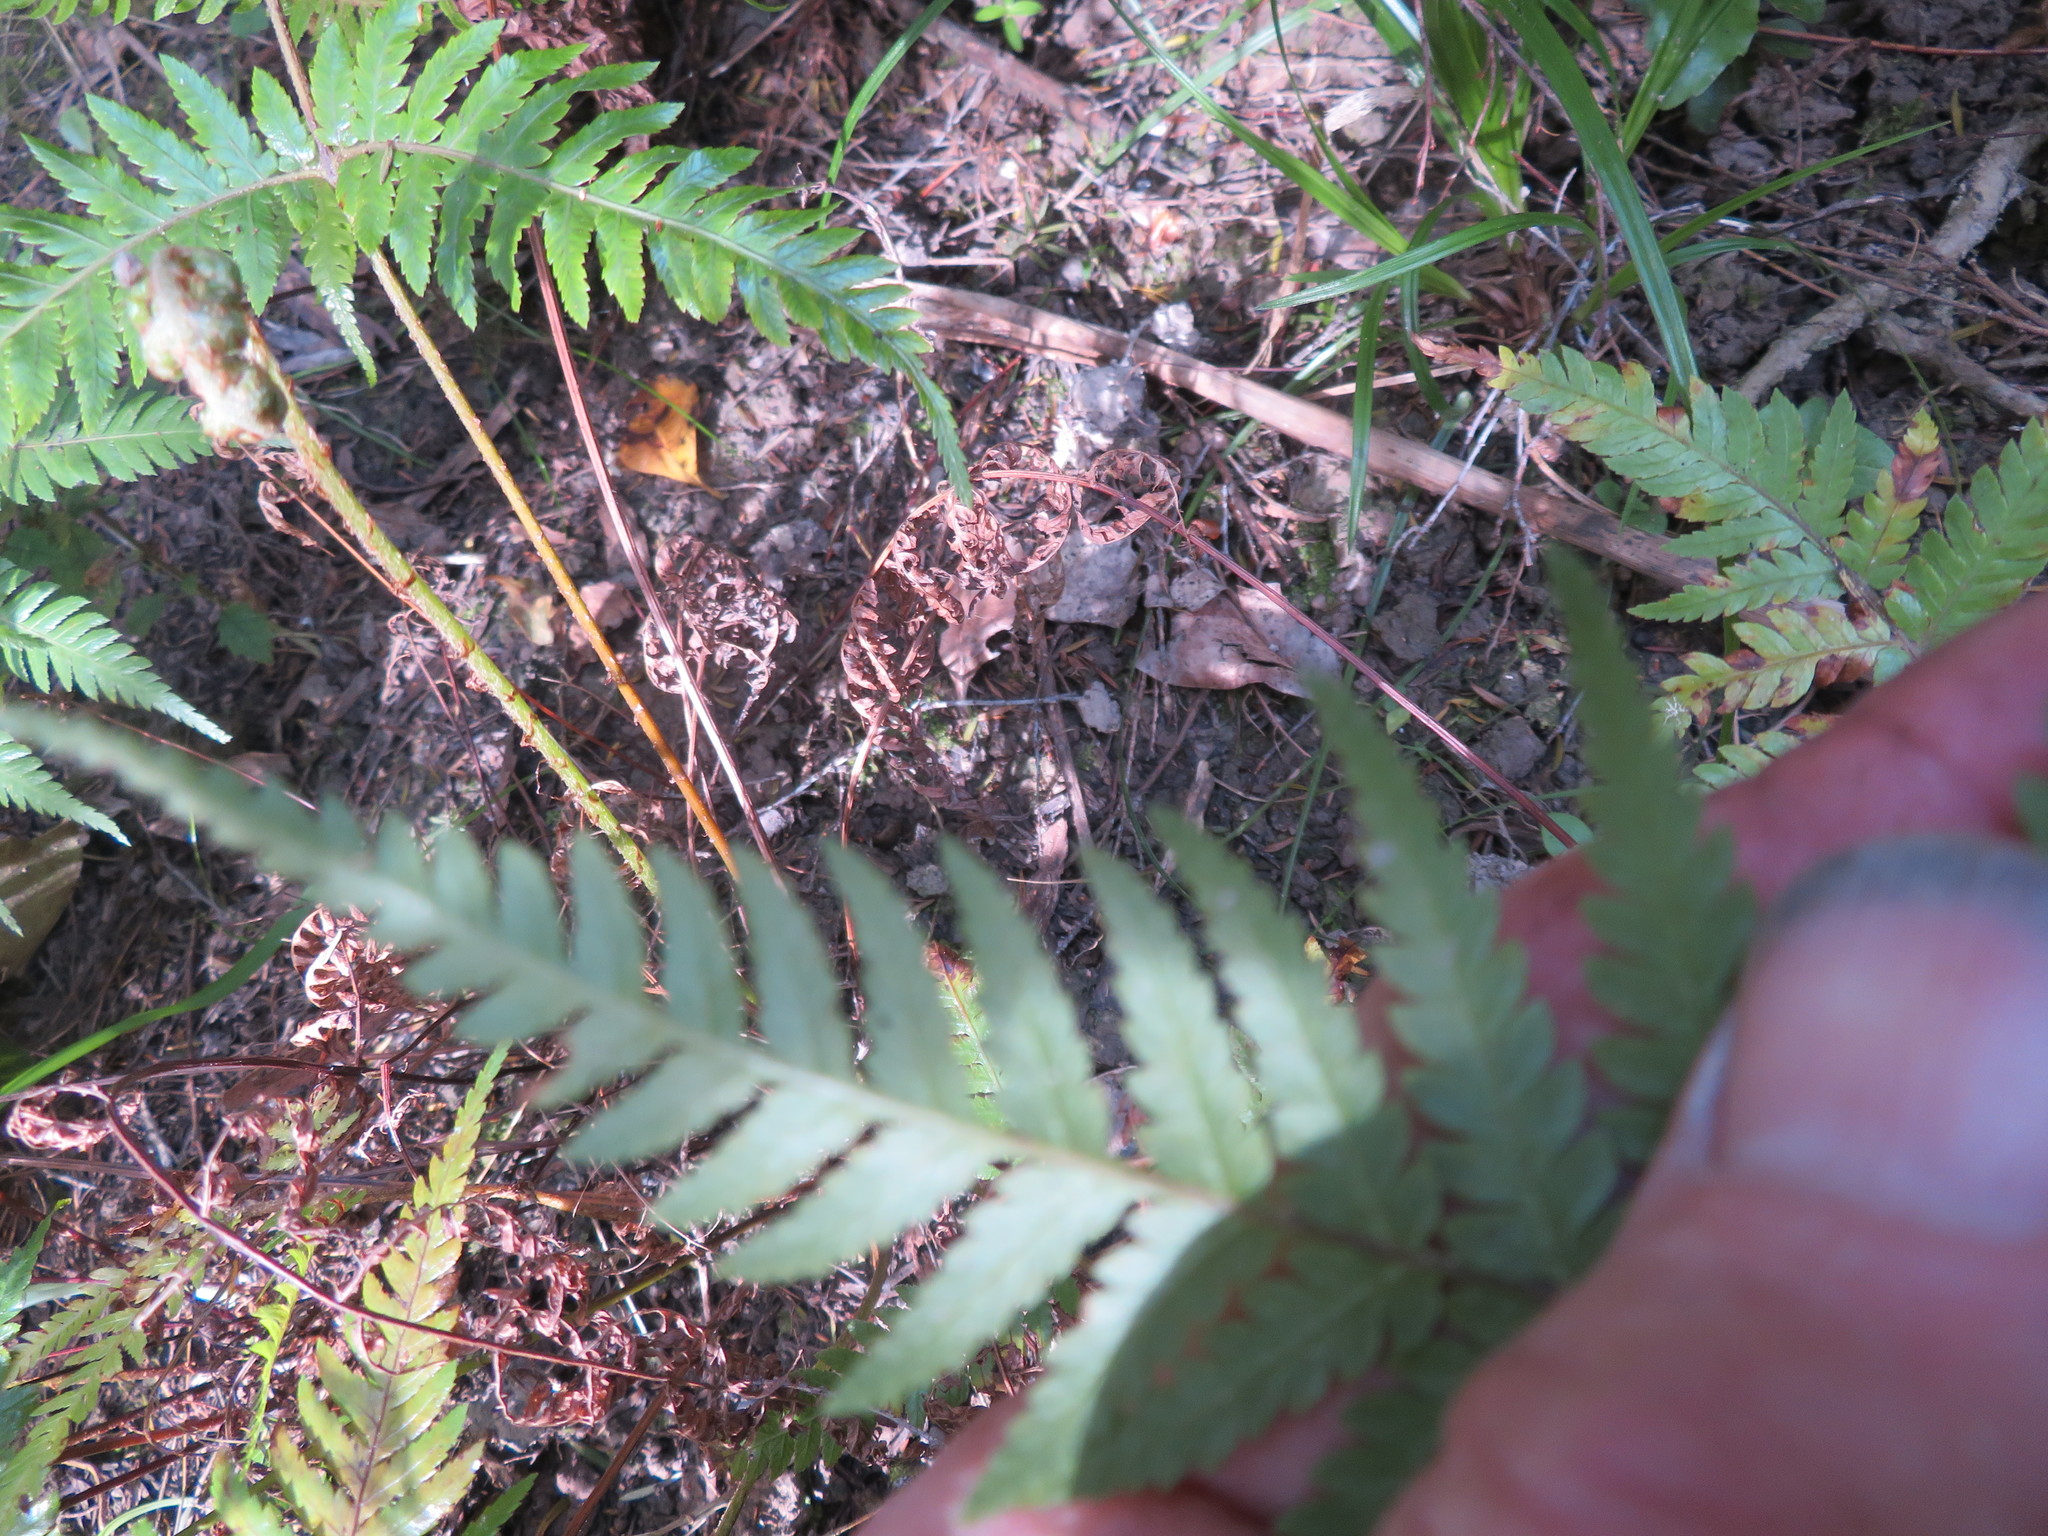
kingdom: Plantae
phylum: Tracheophyta
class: Polypodiopsida
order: Cyatheales
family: Cyatheaceae
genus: Alsophila
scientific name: Alsophila dealbata
